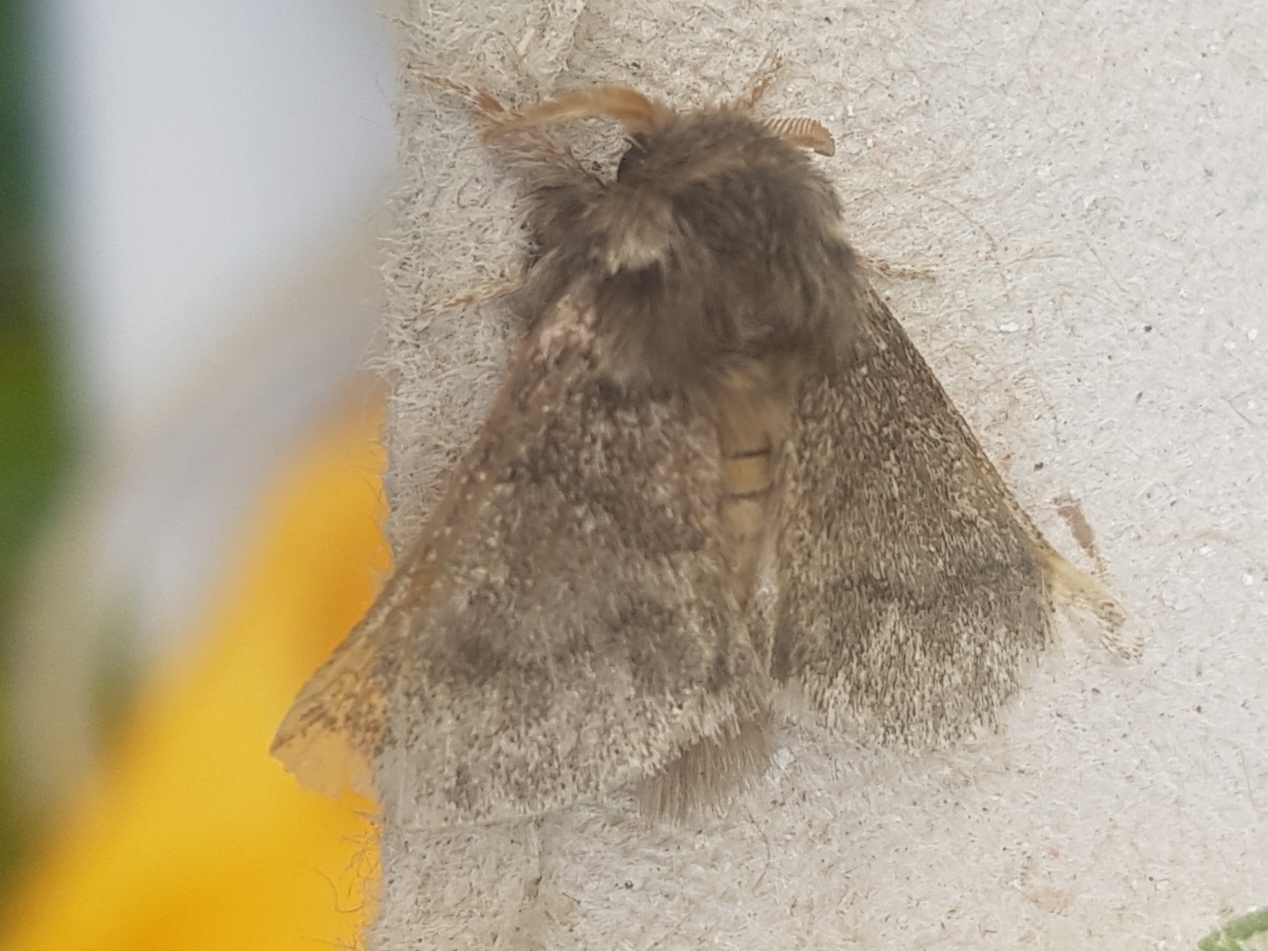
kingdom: Animalia
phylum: Arthropoda
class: Insecta
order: Lepidoptera
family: Notodontidae
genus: Thaumetopoea
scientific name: Thaumetopoea processionea
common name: Oak processionea
